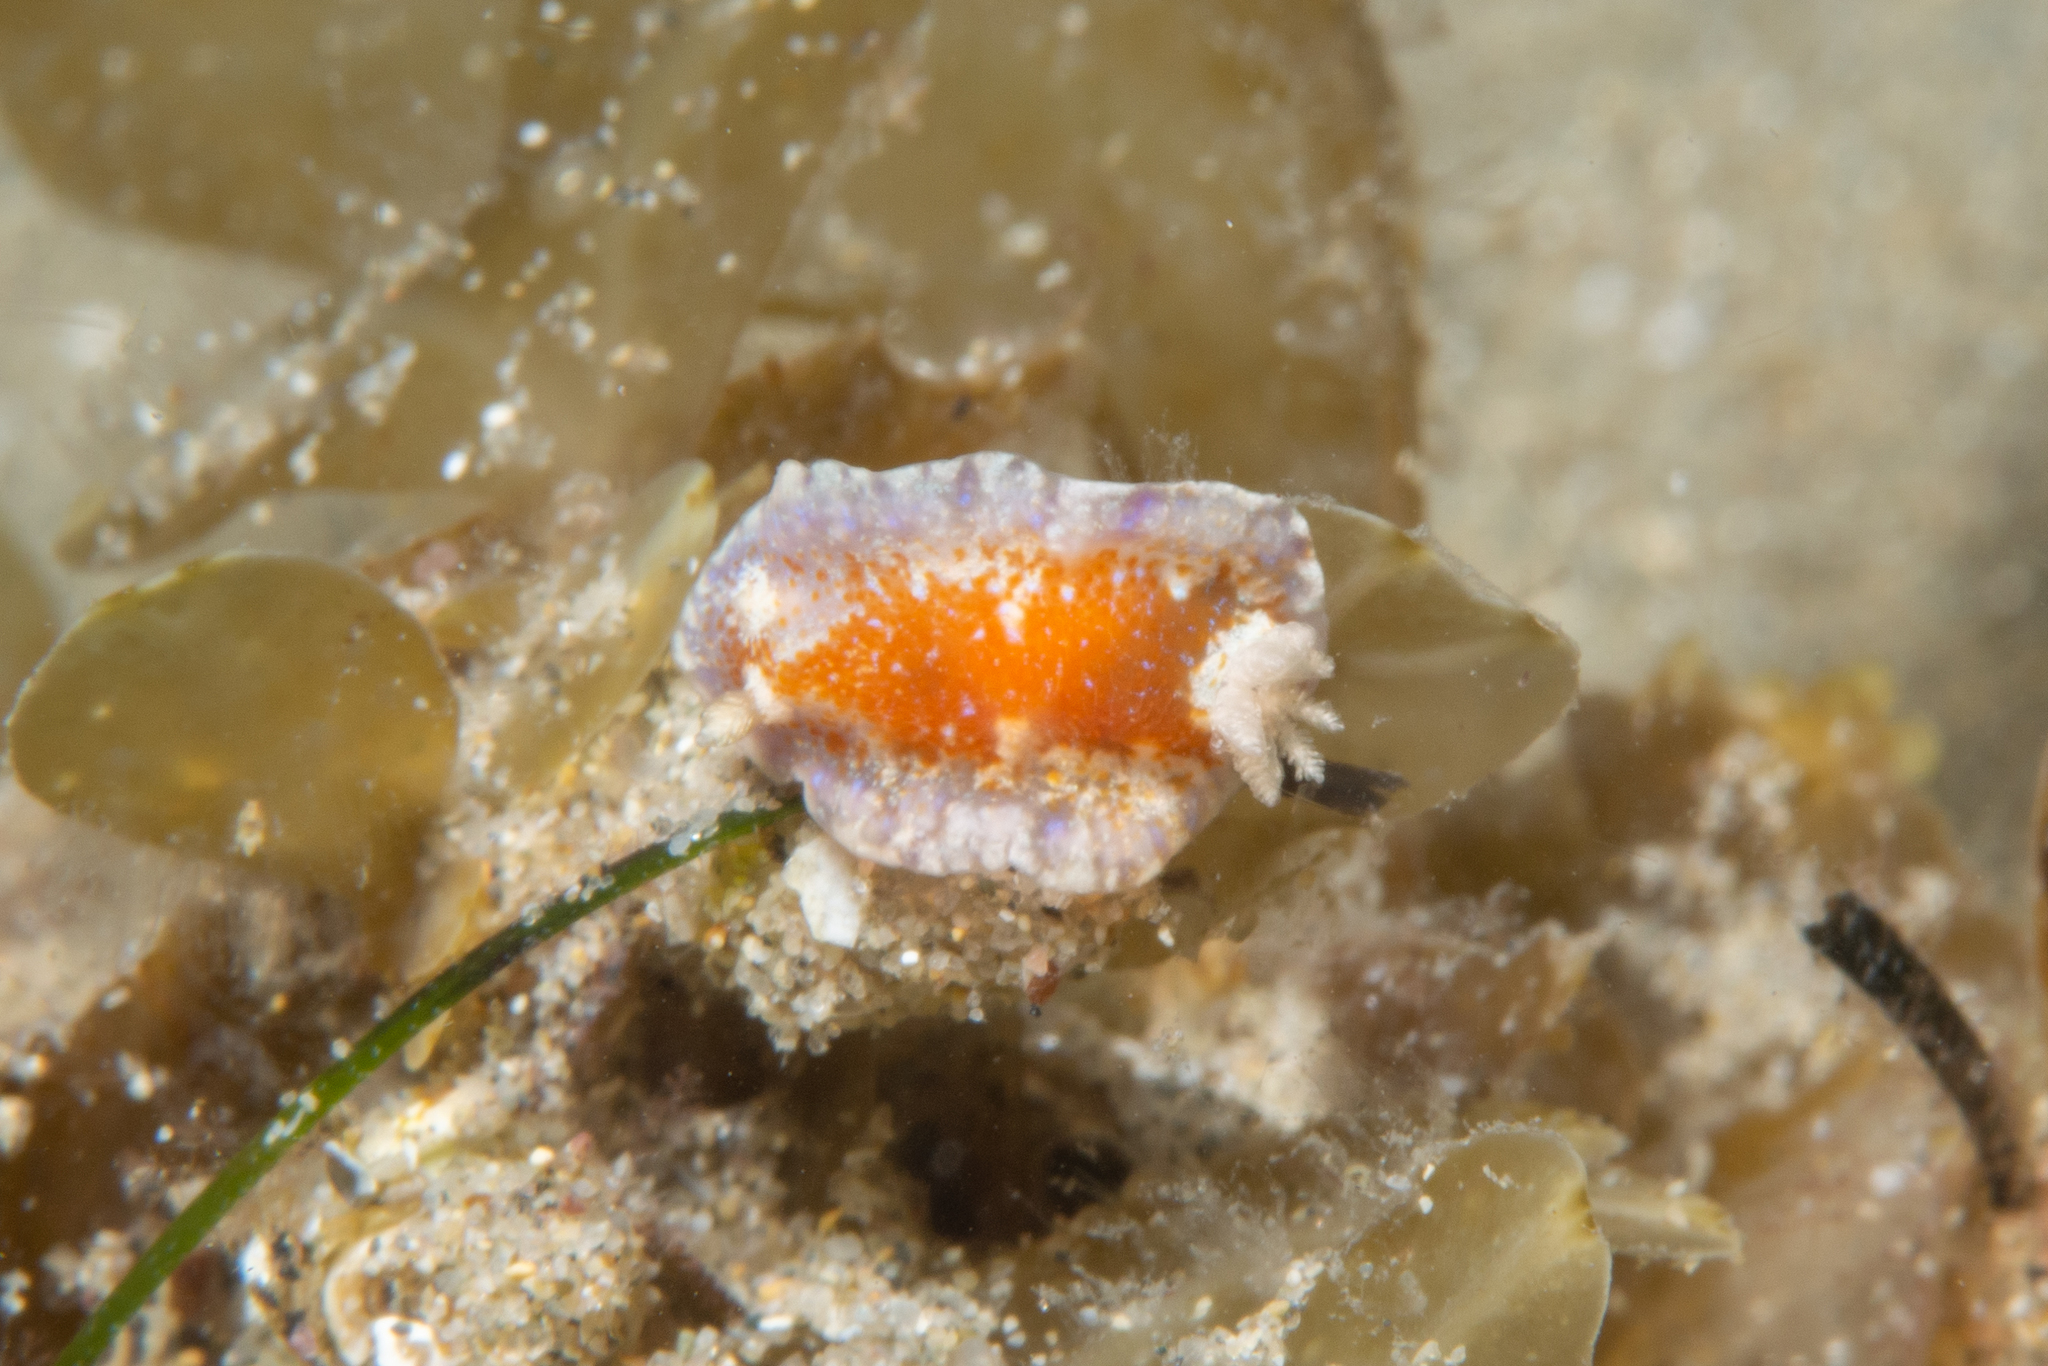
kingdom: Animalia
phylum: Mollusca
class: Gastropoda
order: Nudibranchia
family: Chromodorididae
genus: Chromodoris
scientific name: Chromodoris alternata
